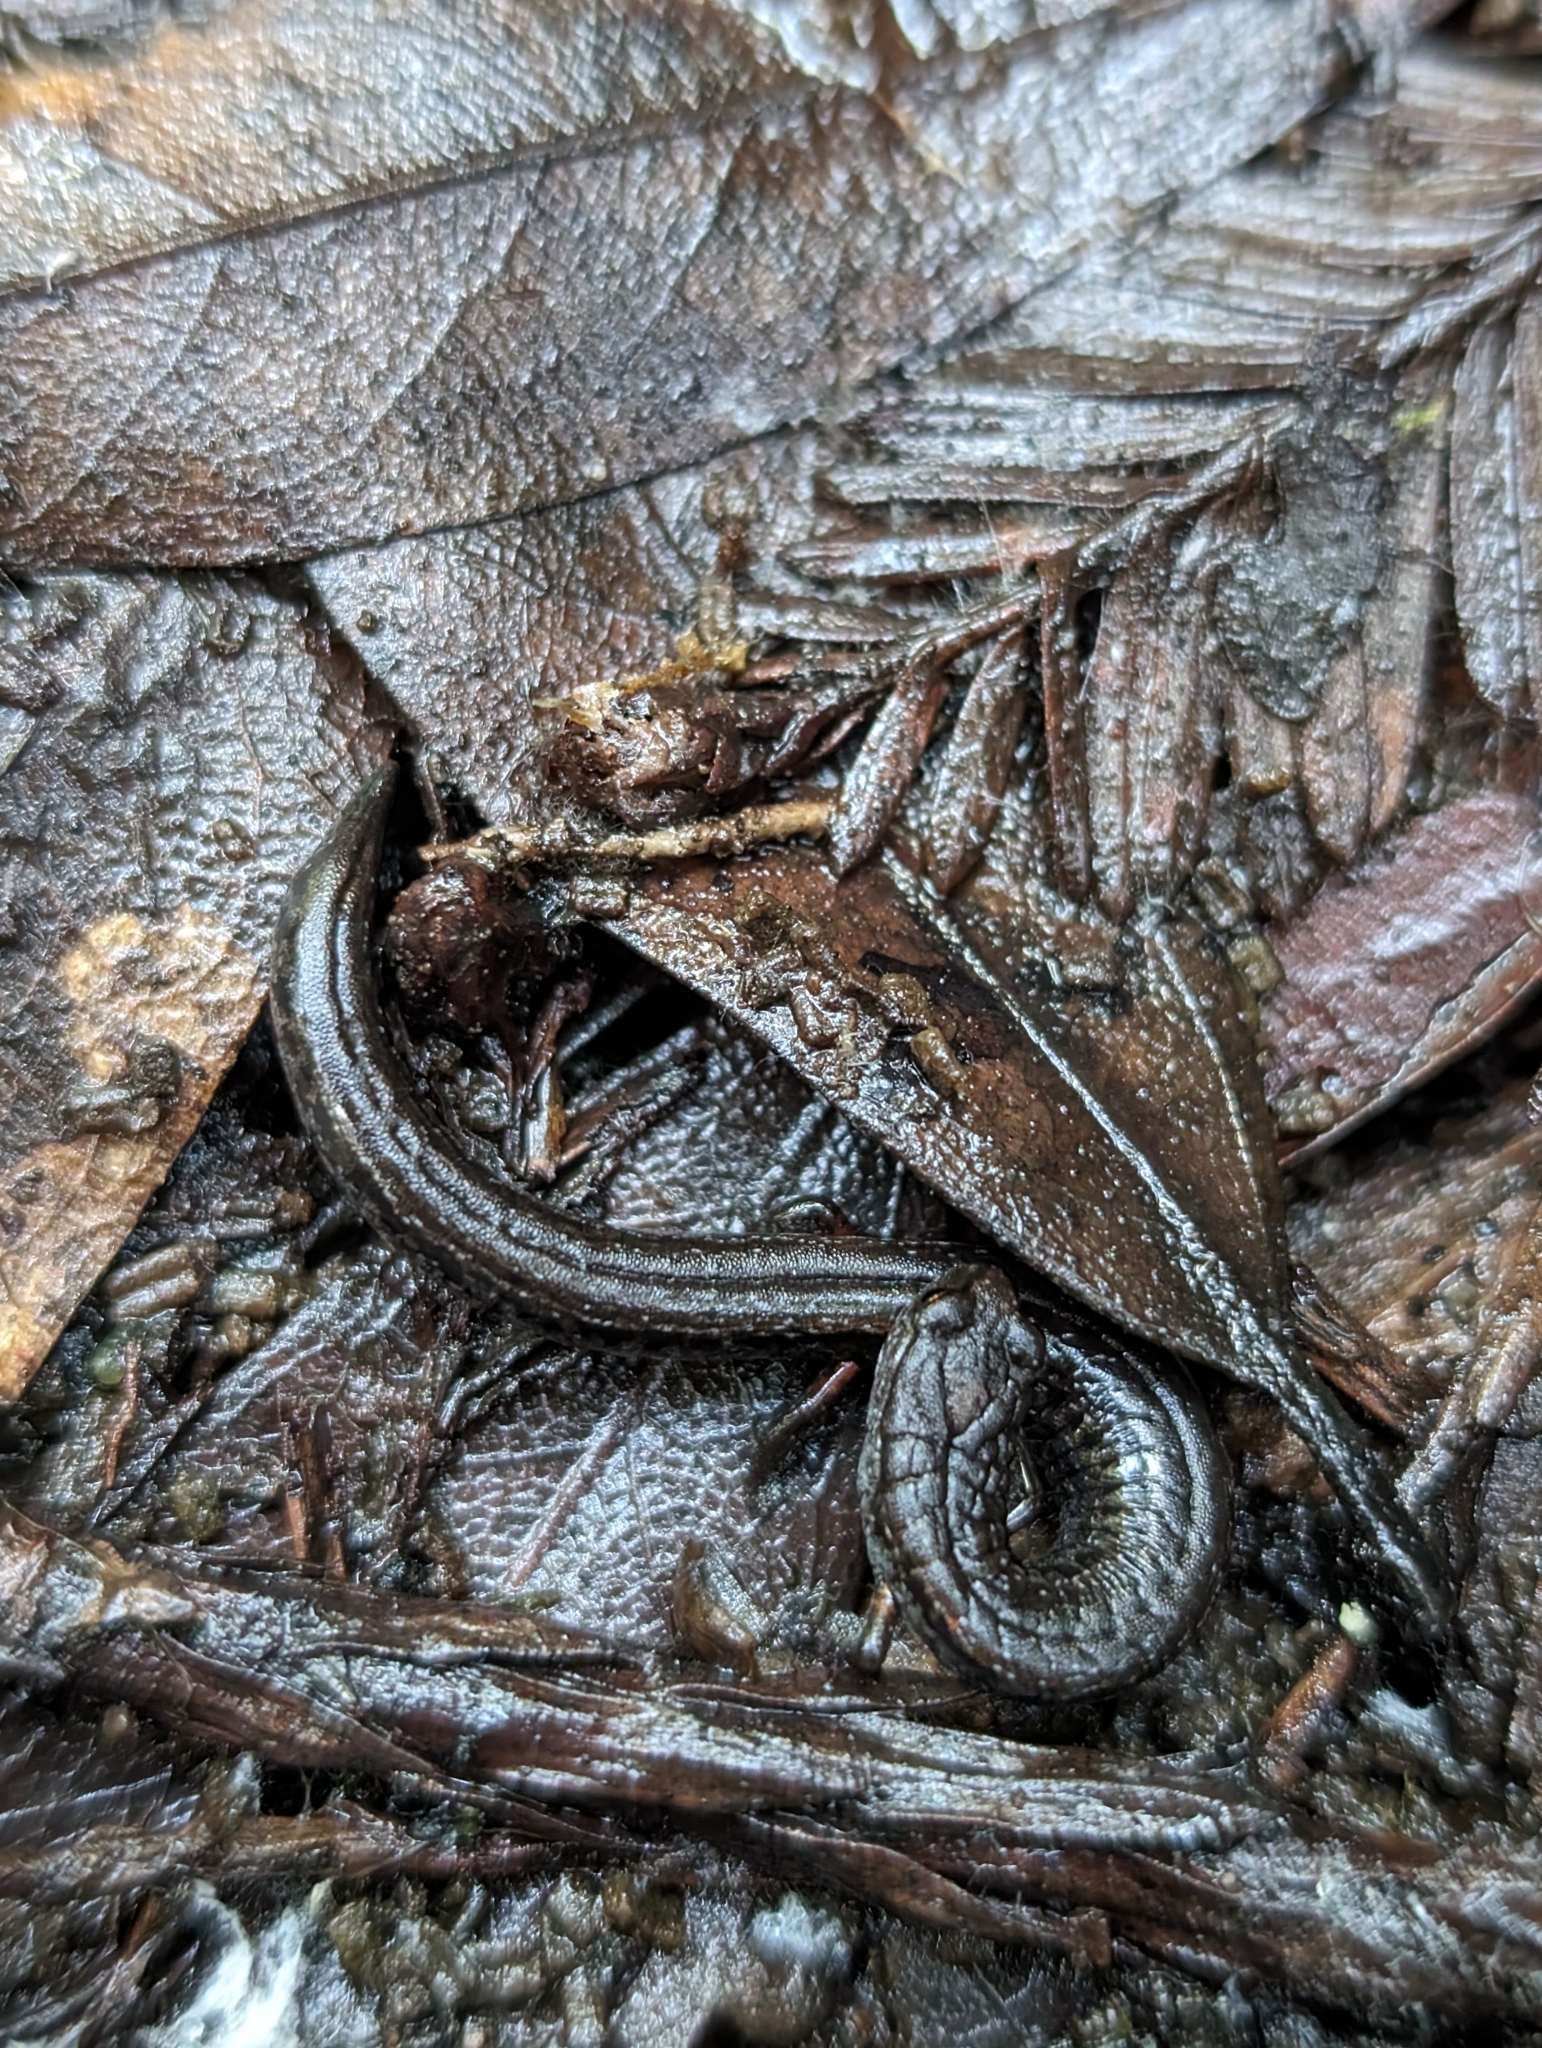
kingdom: Animalia
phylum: Chordata
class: Amphibia
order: Caudata
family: Plethodontidae
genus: Batrachoseps
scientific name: Batrachoseps attenuatus
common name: California slender salamander
